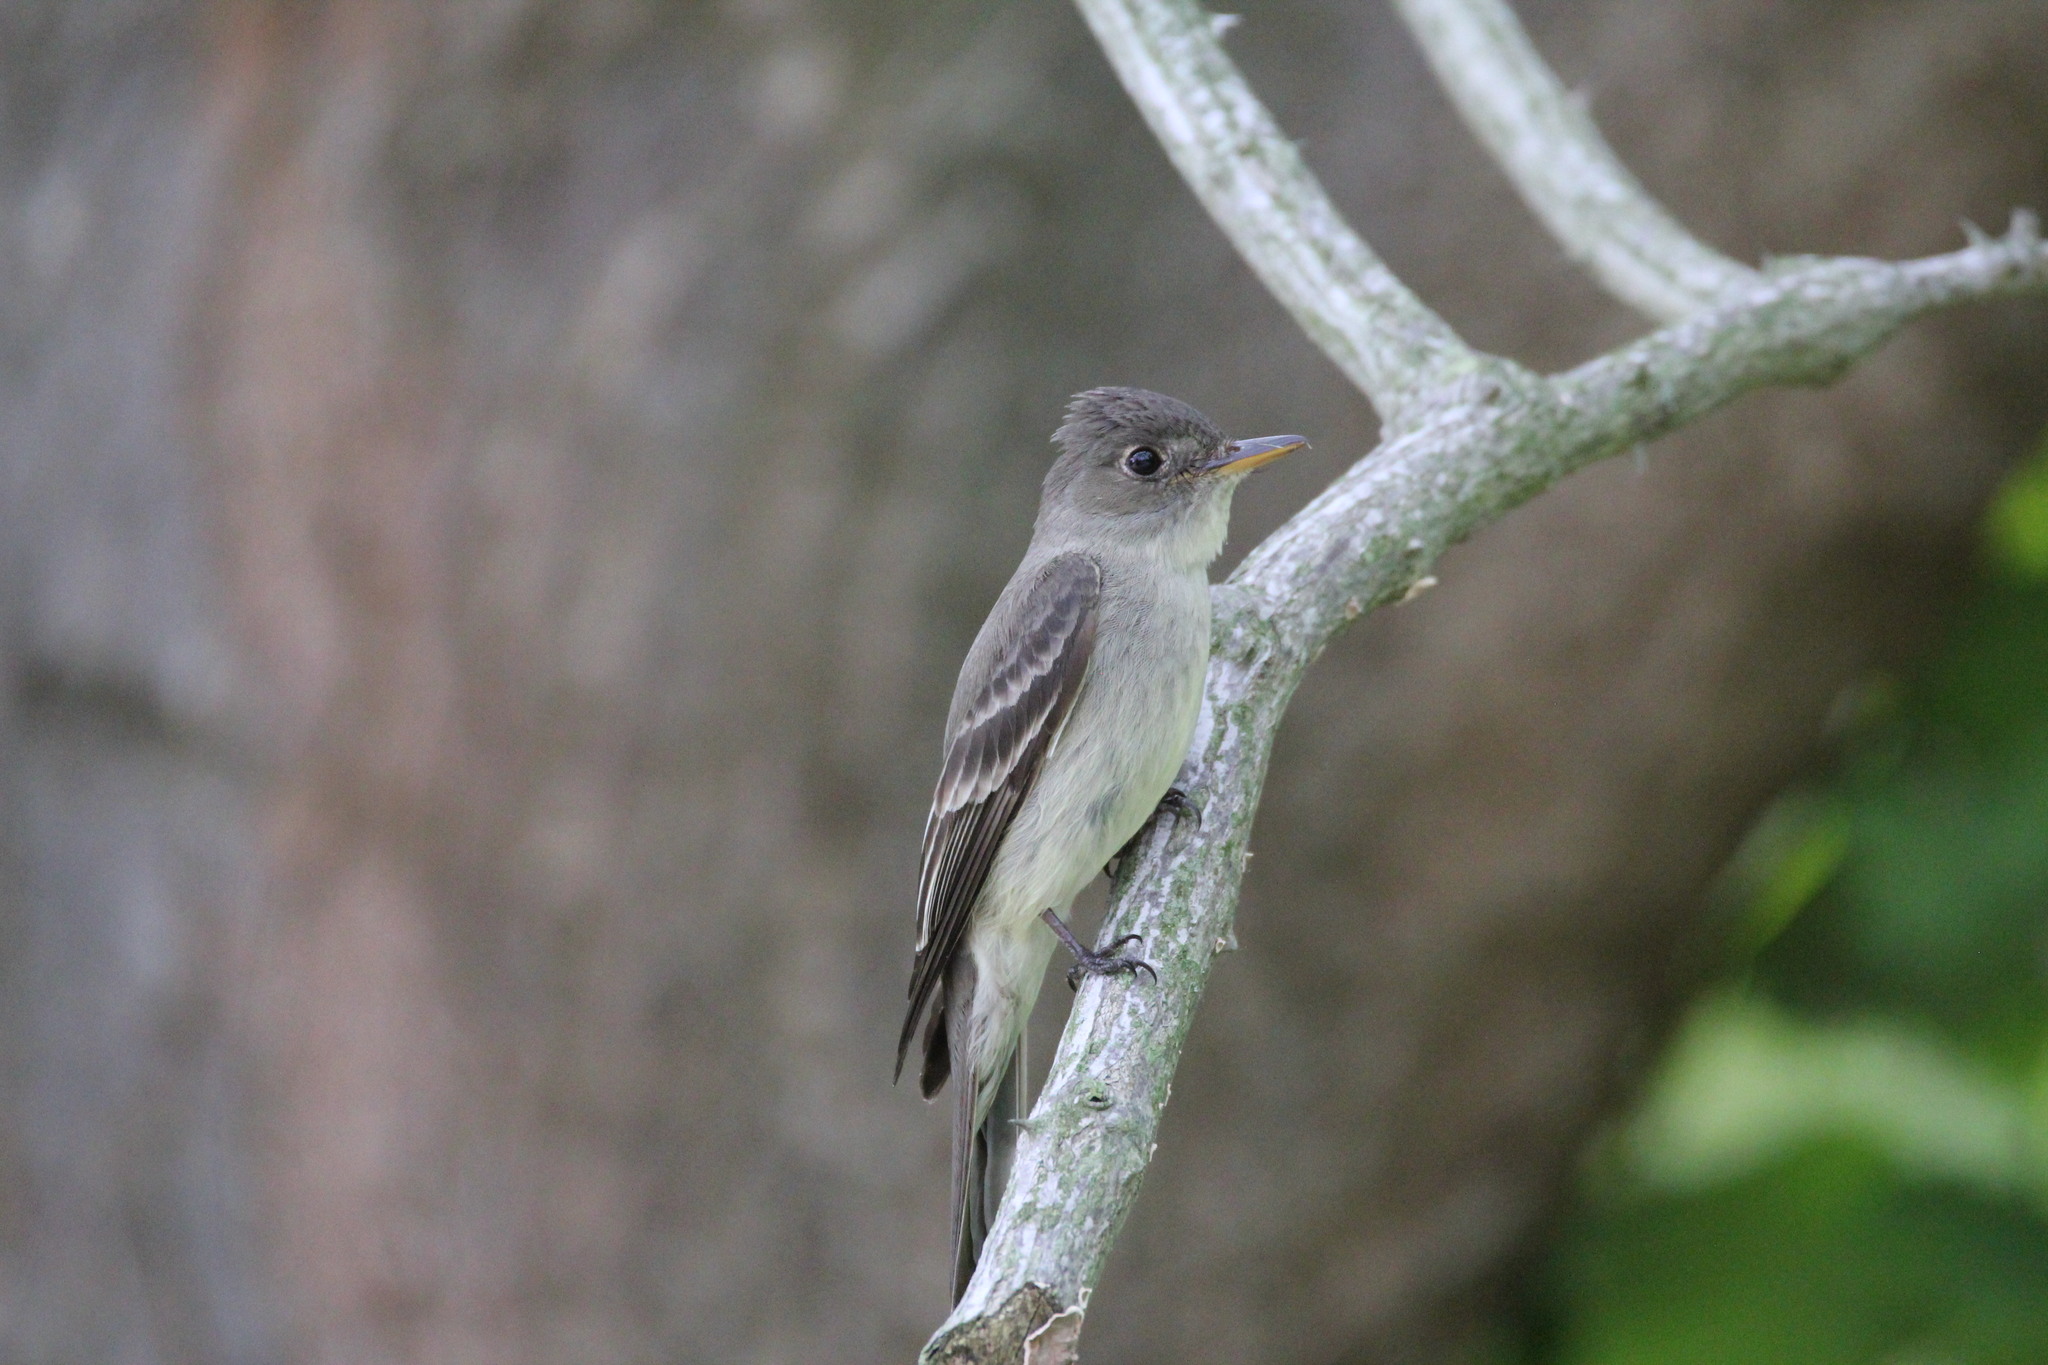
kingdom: Animalia
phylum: Chordata
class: Aves
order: Passeriformes
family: Tyrannidae
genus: Contopus
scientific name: Contopus virens
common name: Eastern wood-pewee
